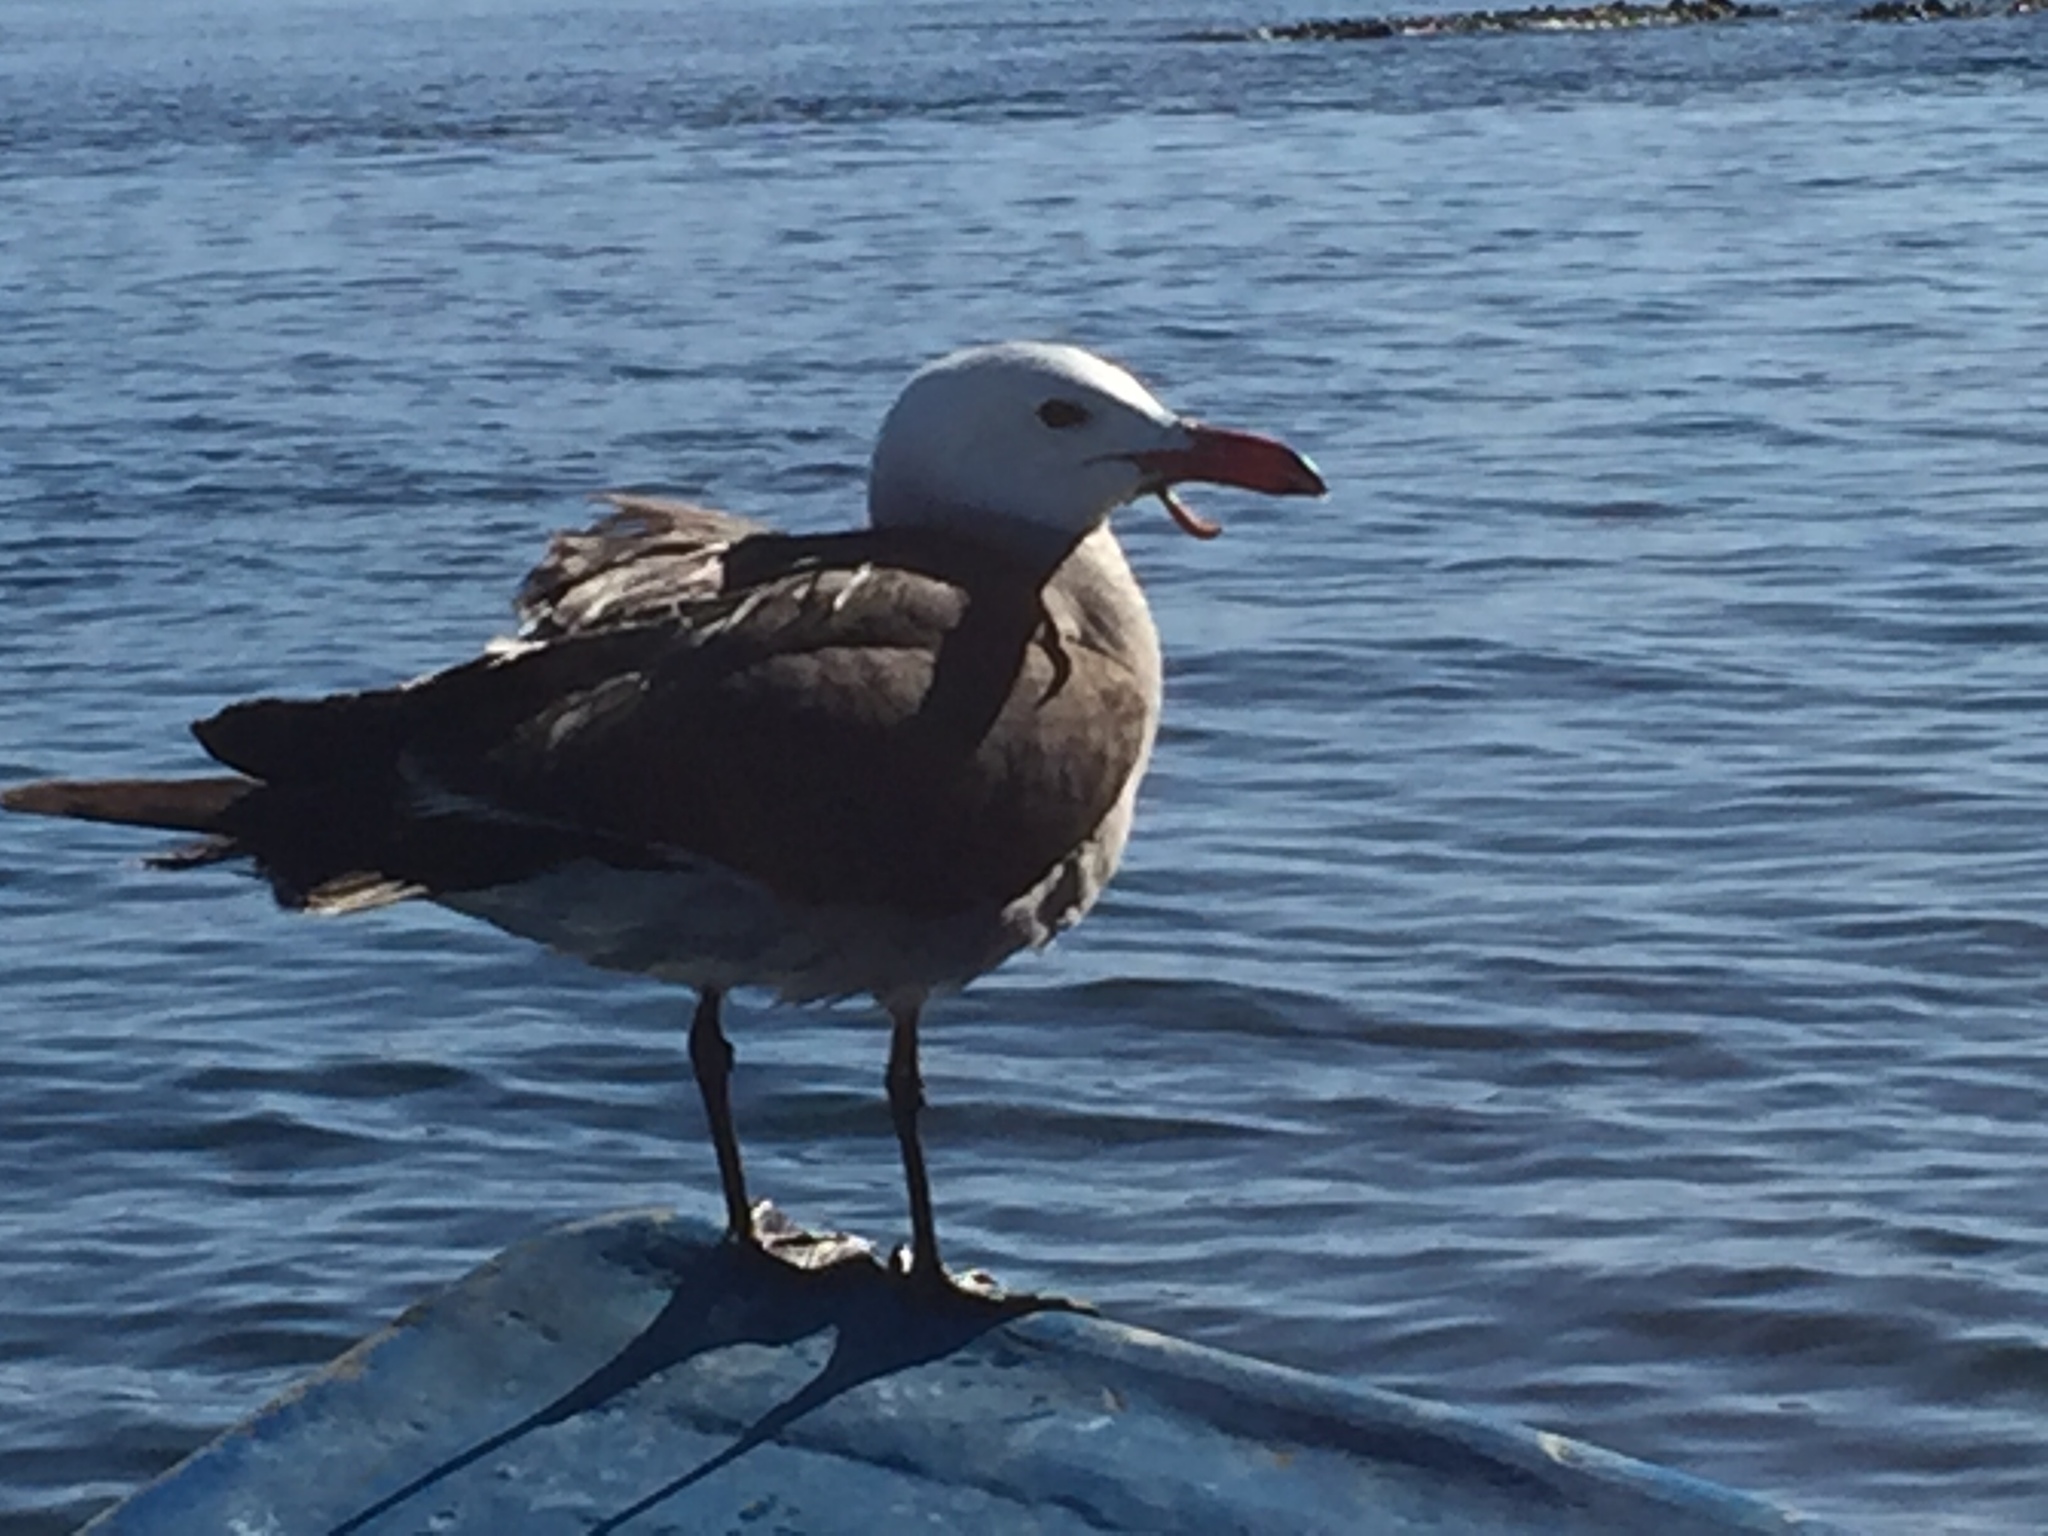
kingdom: Animalia
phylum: Chordata
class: Aves
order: Charadriiformes
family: Laridae
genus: Larus
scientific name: Larus heermanni
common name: Heermann's gull
